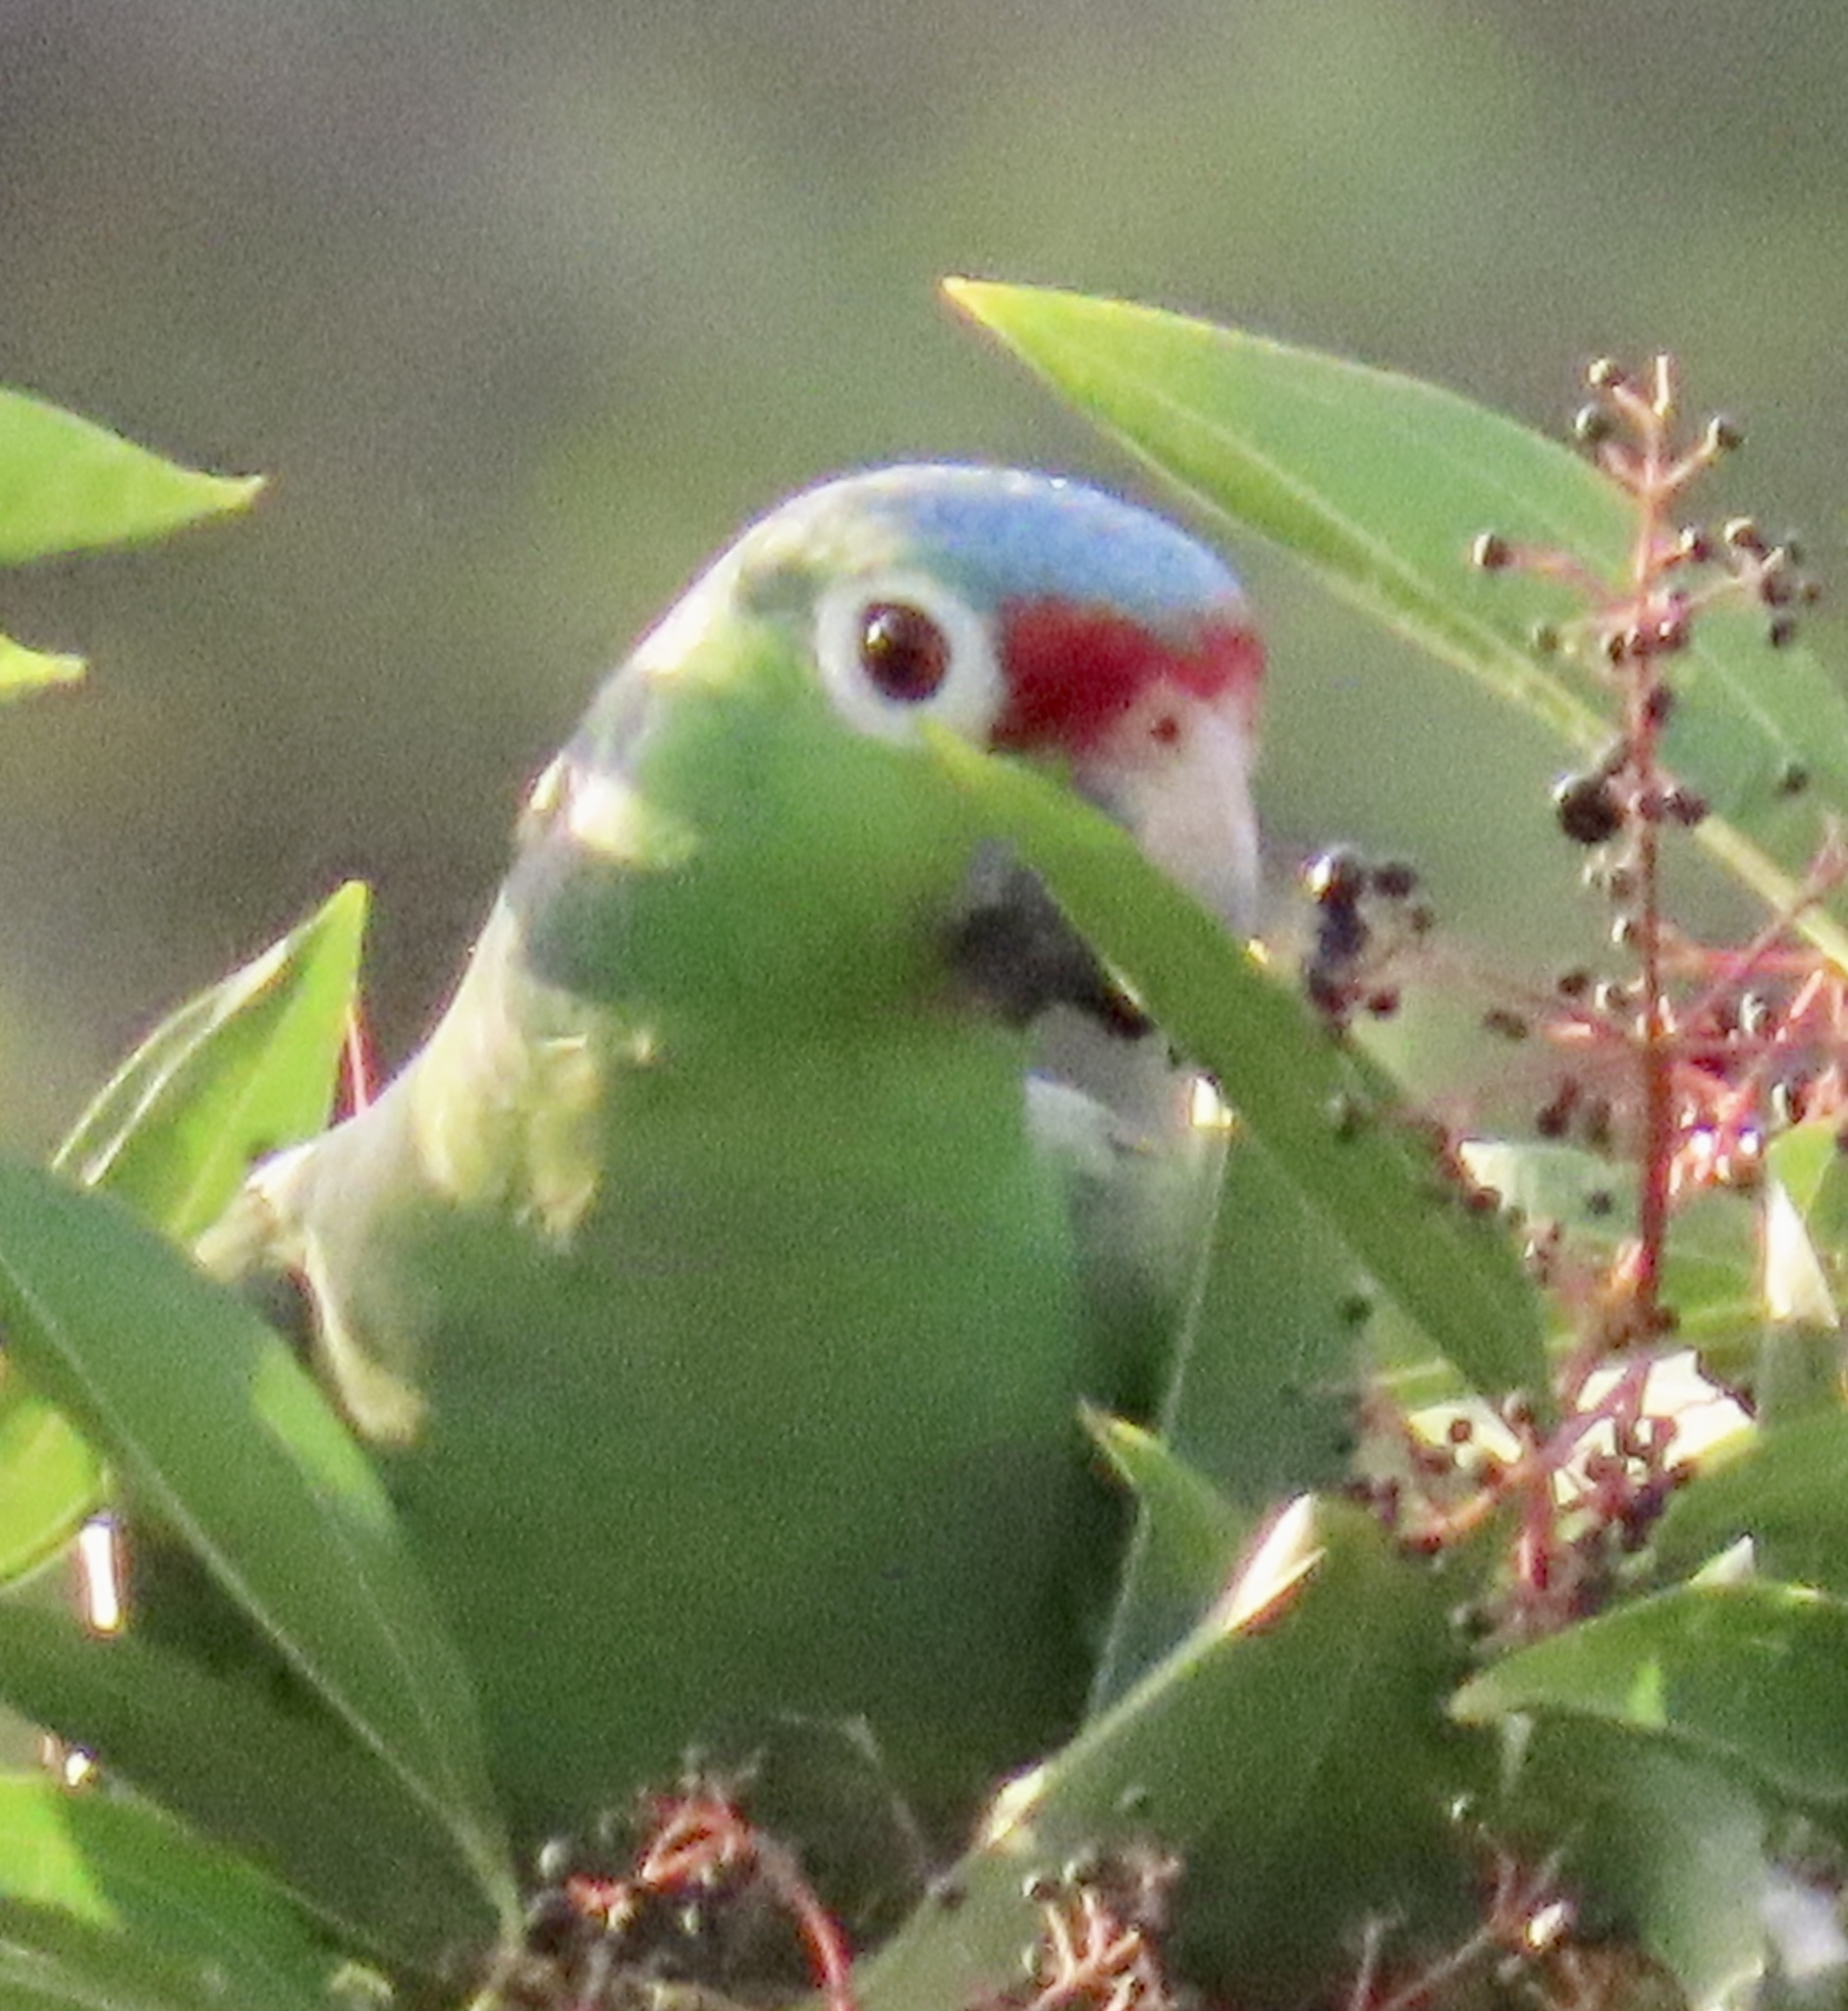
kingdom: Animalia
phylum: Chordata
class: Aves
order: Psittaciformes
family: Psittacidae
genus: Amazona
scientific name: Amazona autumnalis
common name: Red-lored amazon
